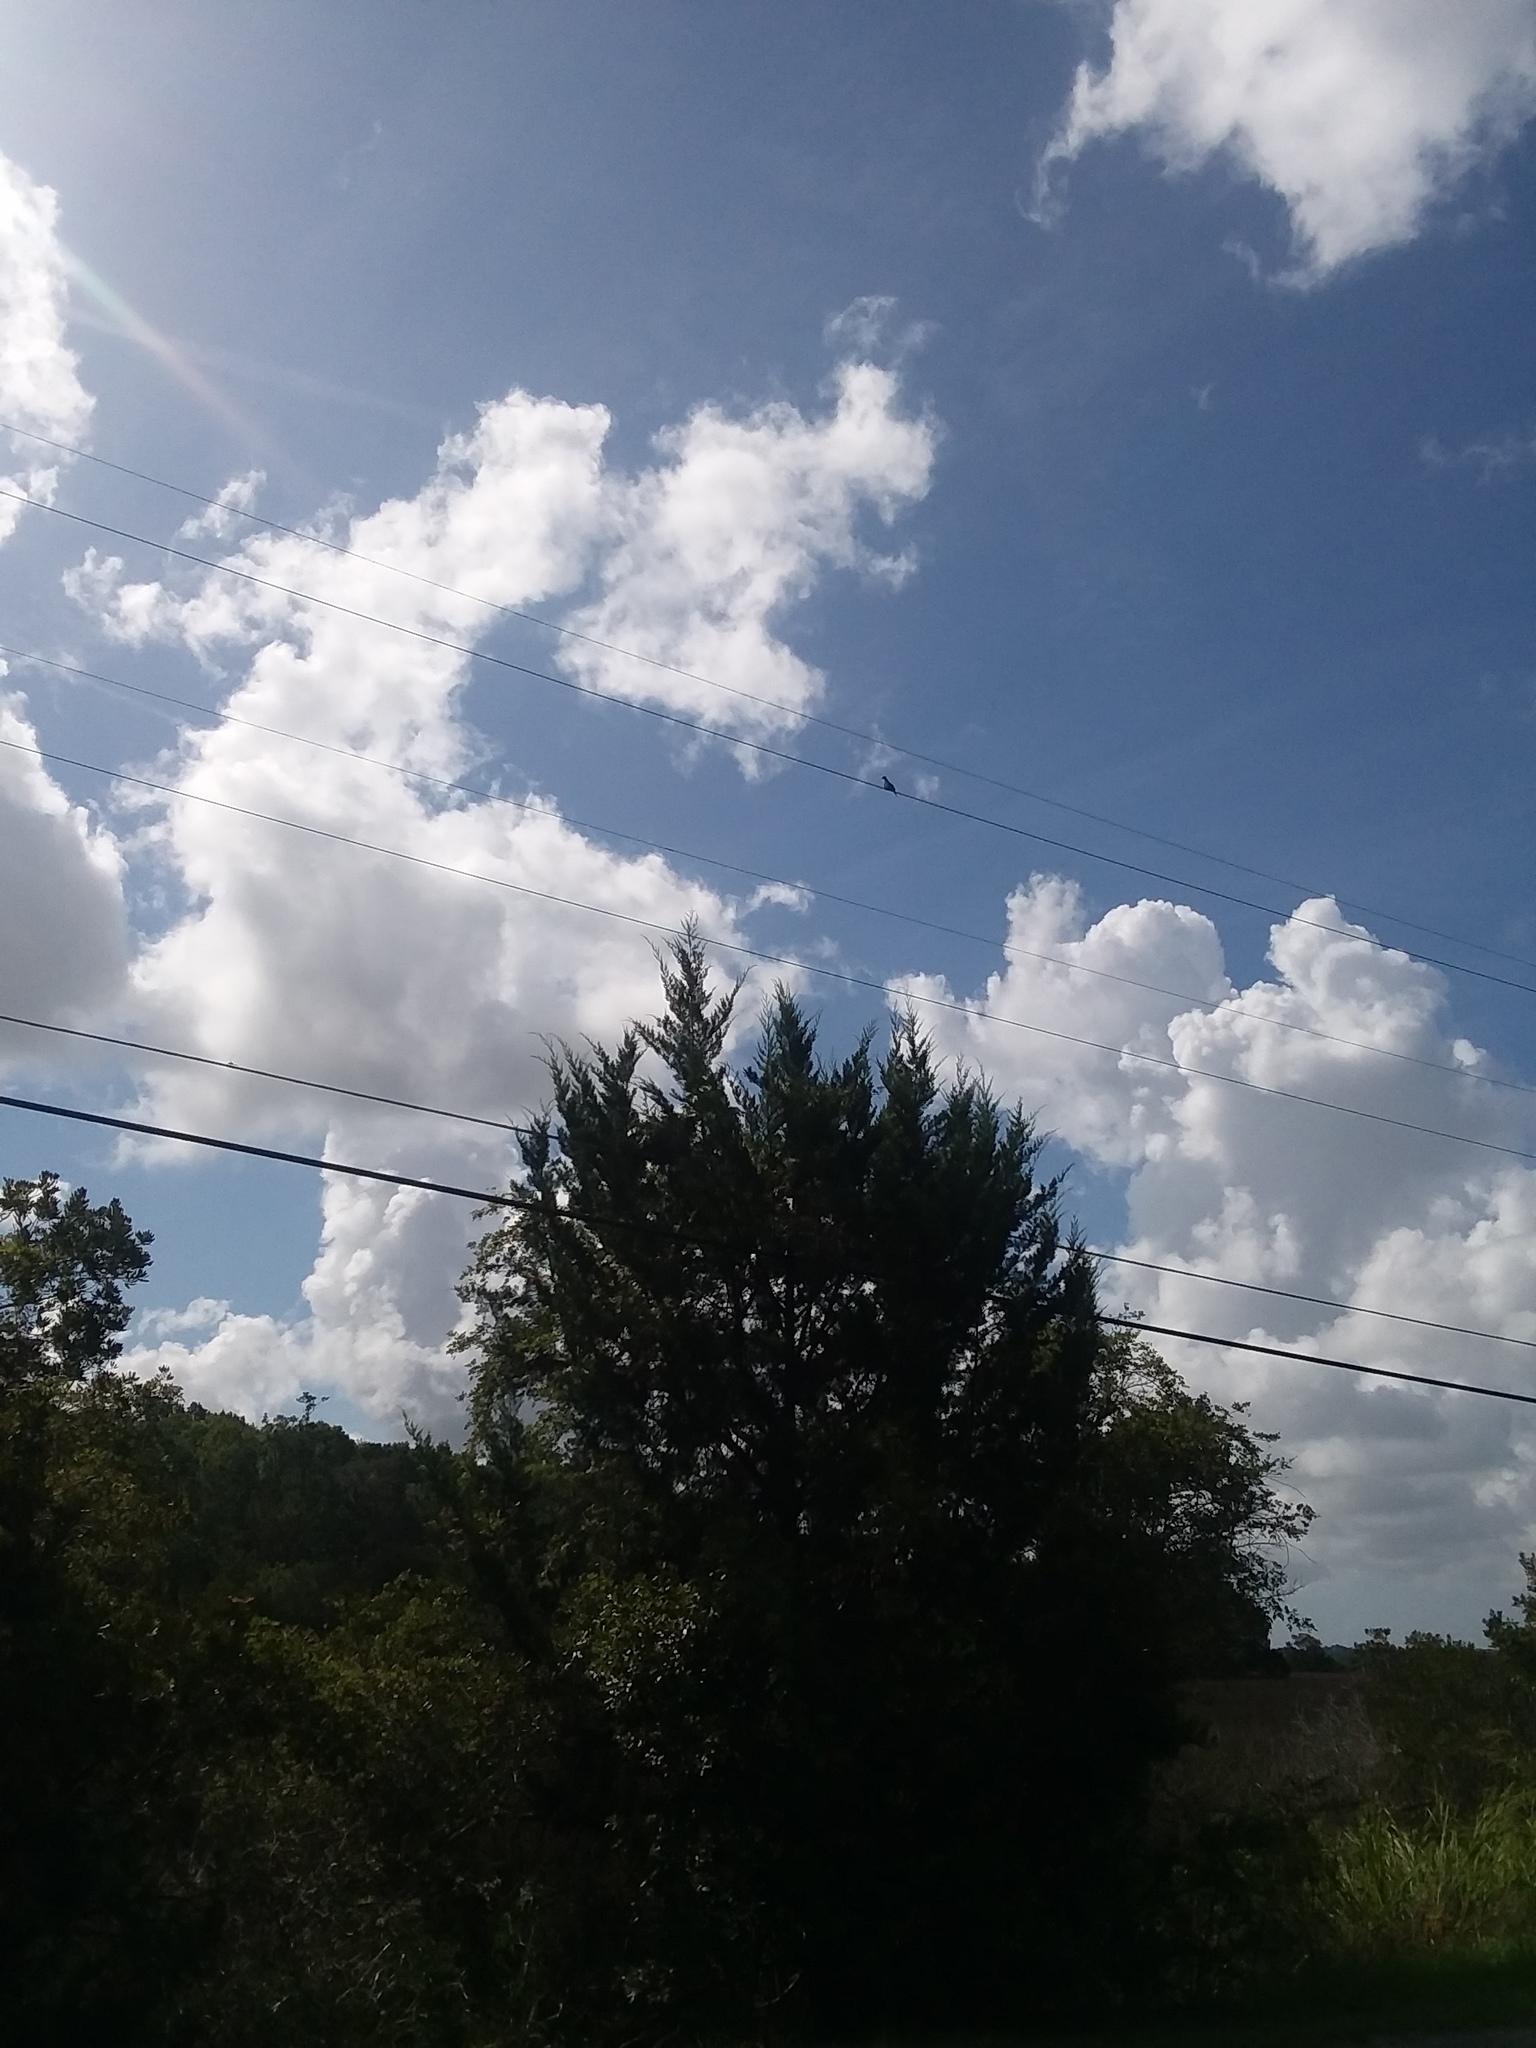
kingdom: Animalia
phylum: Chordata
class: Aves
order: Columbiformes
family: Columbidae
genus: Zenaida
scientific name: Zenaida macroura
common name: Mourning dove
